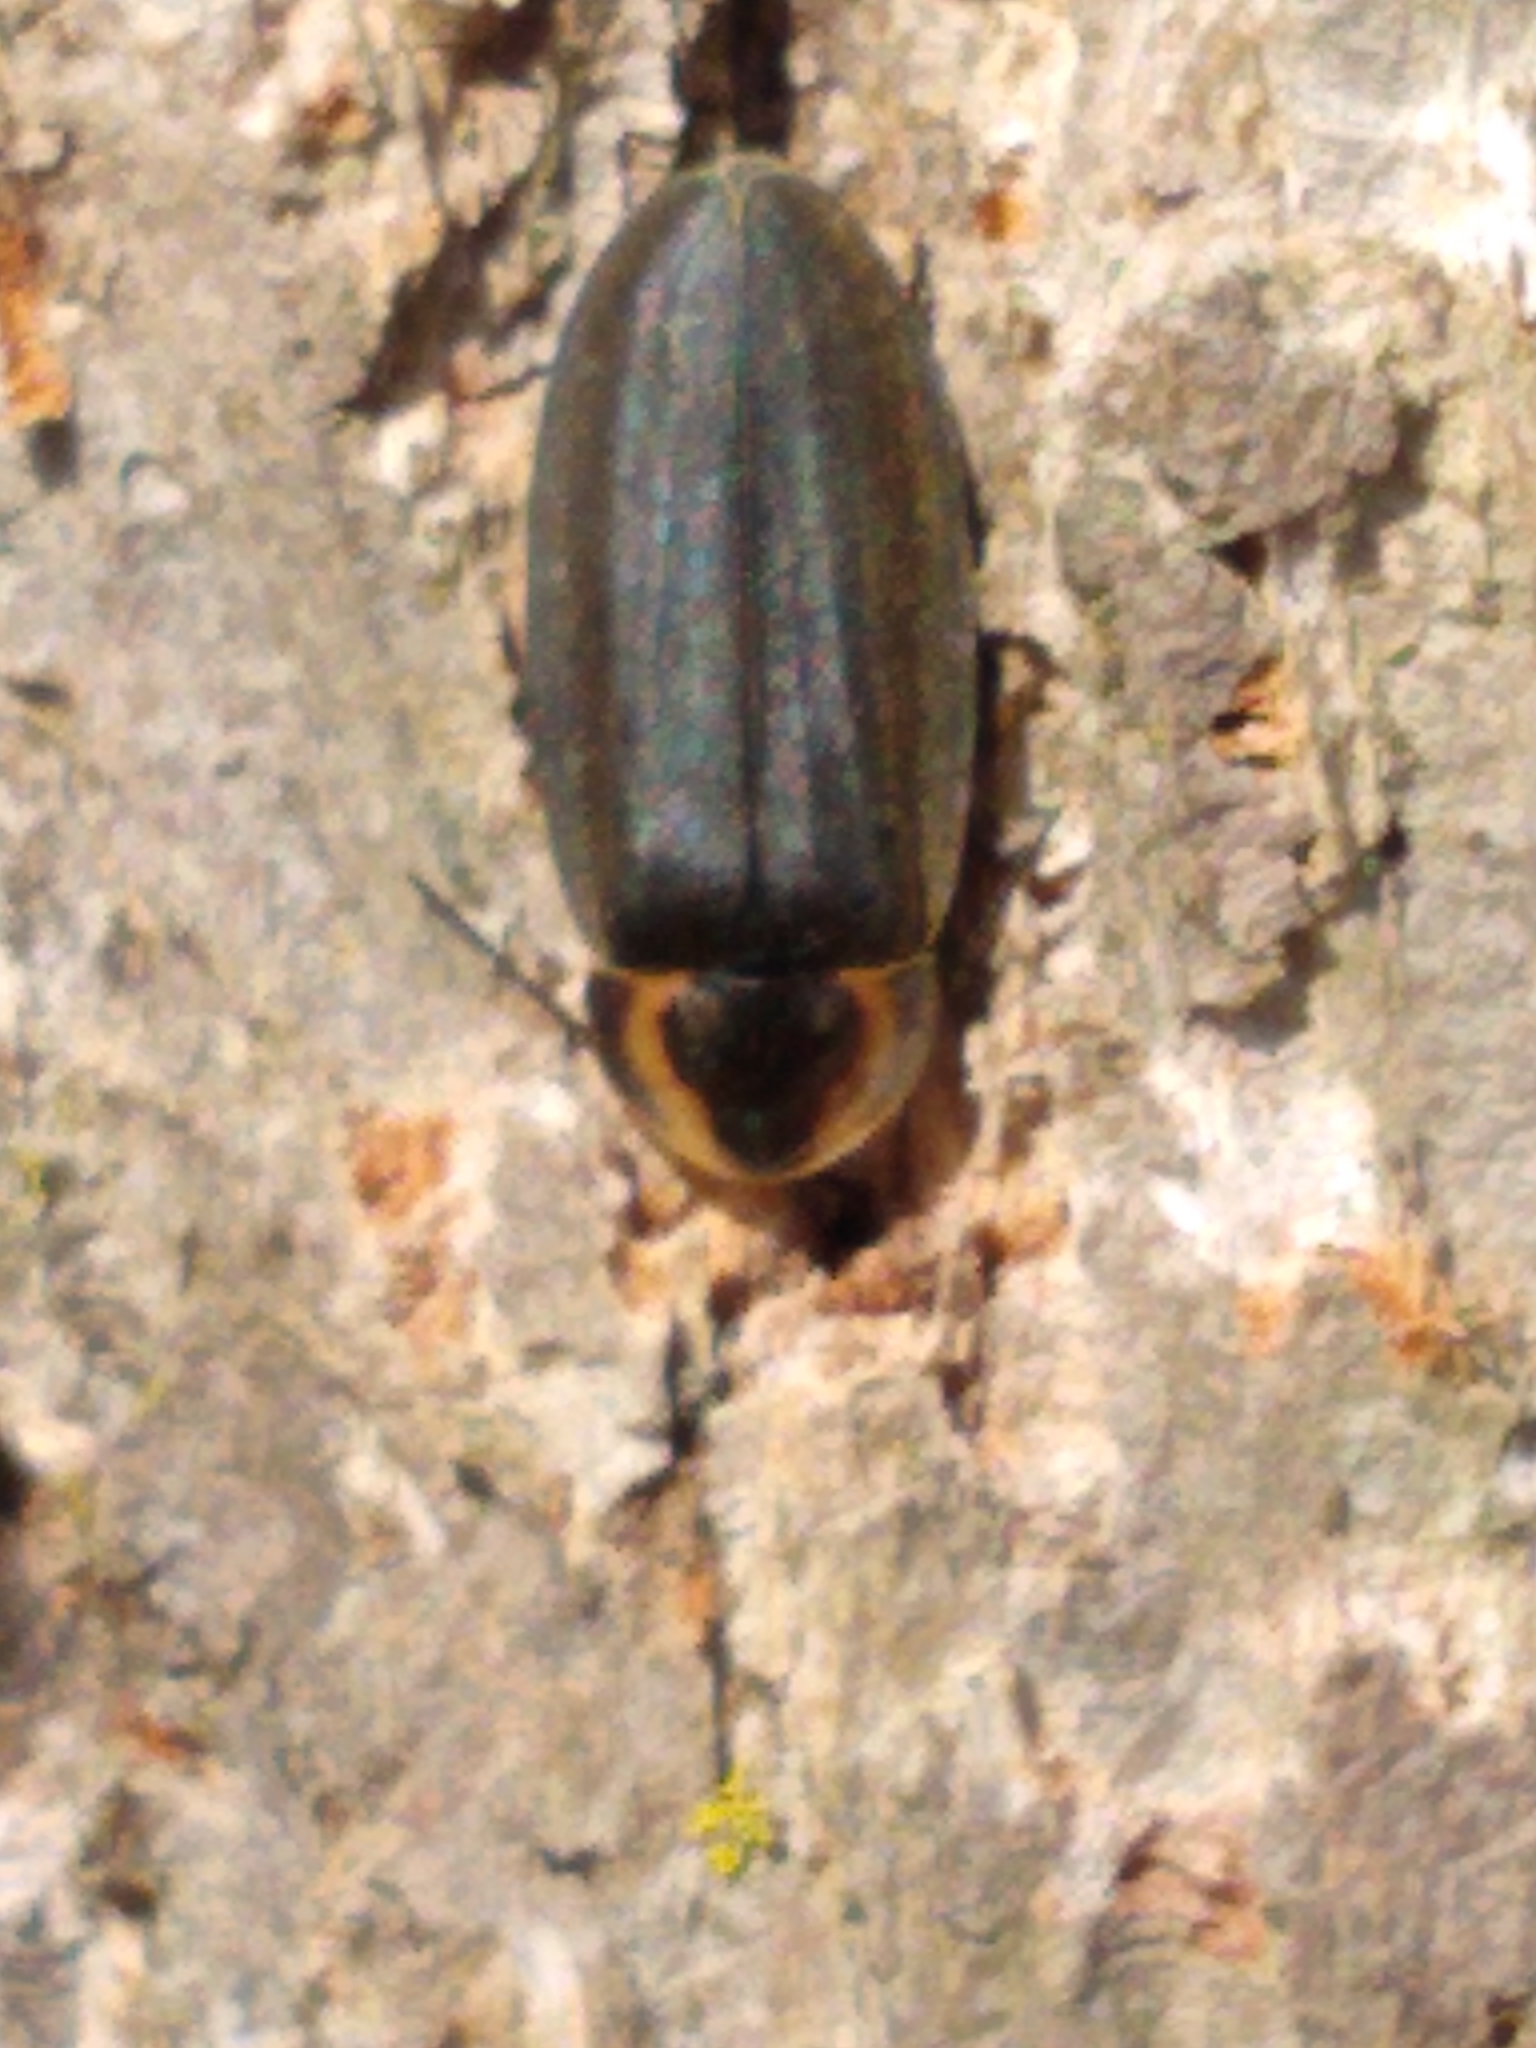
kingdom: Animalia
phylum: Arthropoda
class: Insecta
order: Coleoptera
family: Lampyridae
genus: Photinus
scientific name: Photinus corrusca
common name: Winter firefly
